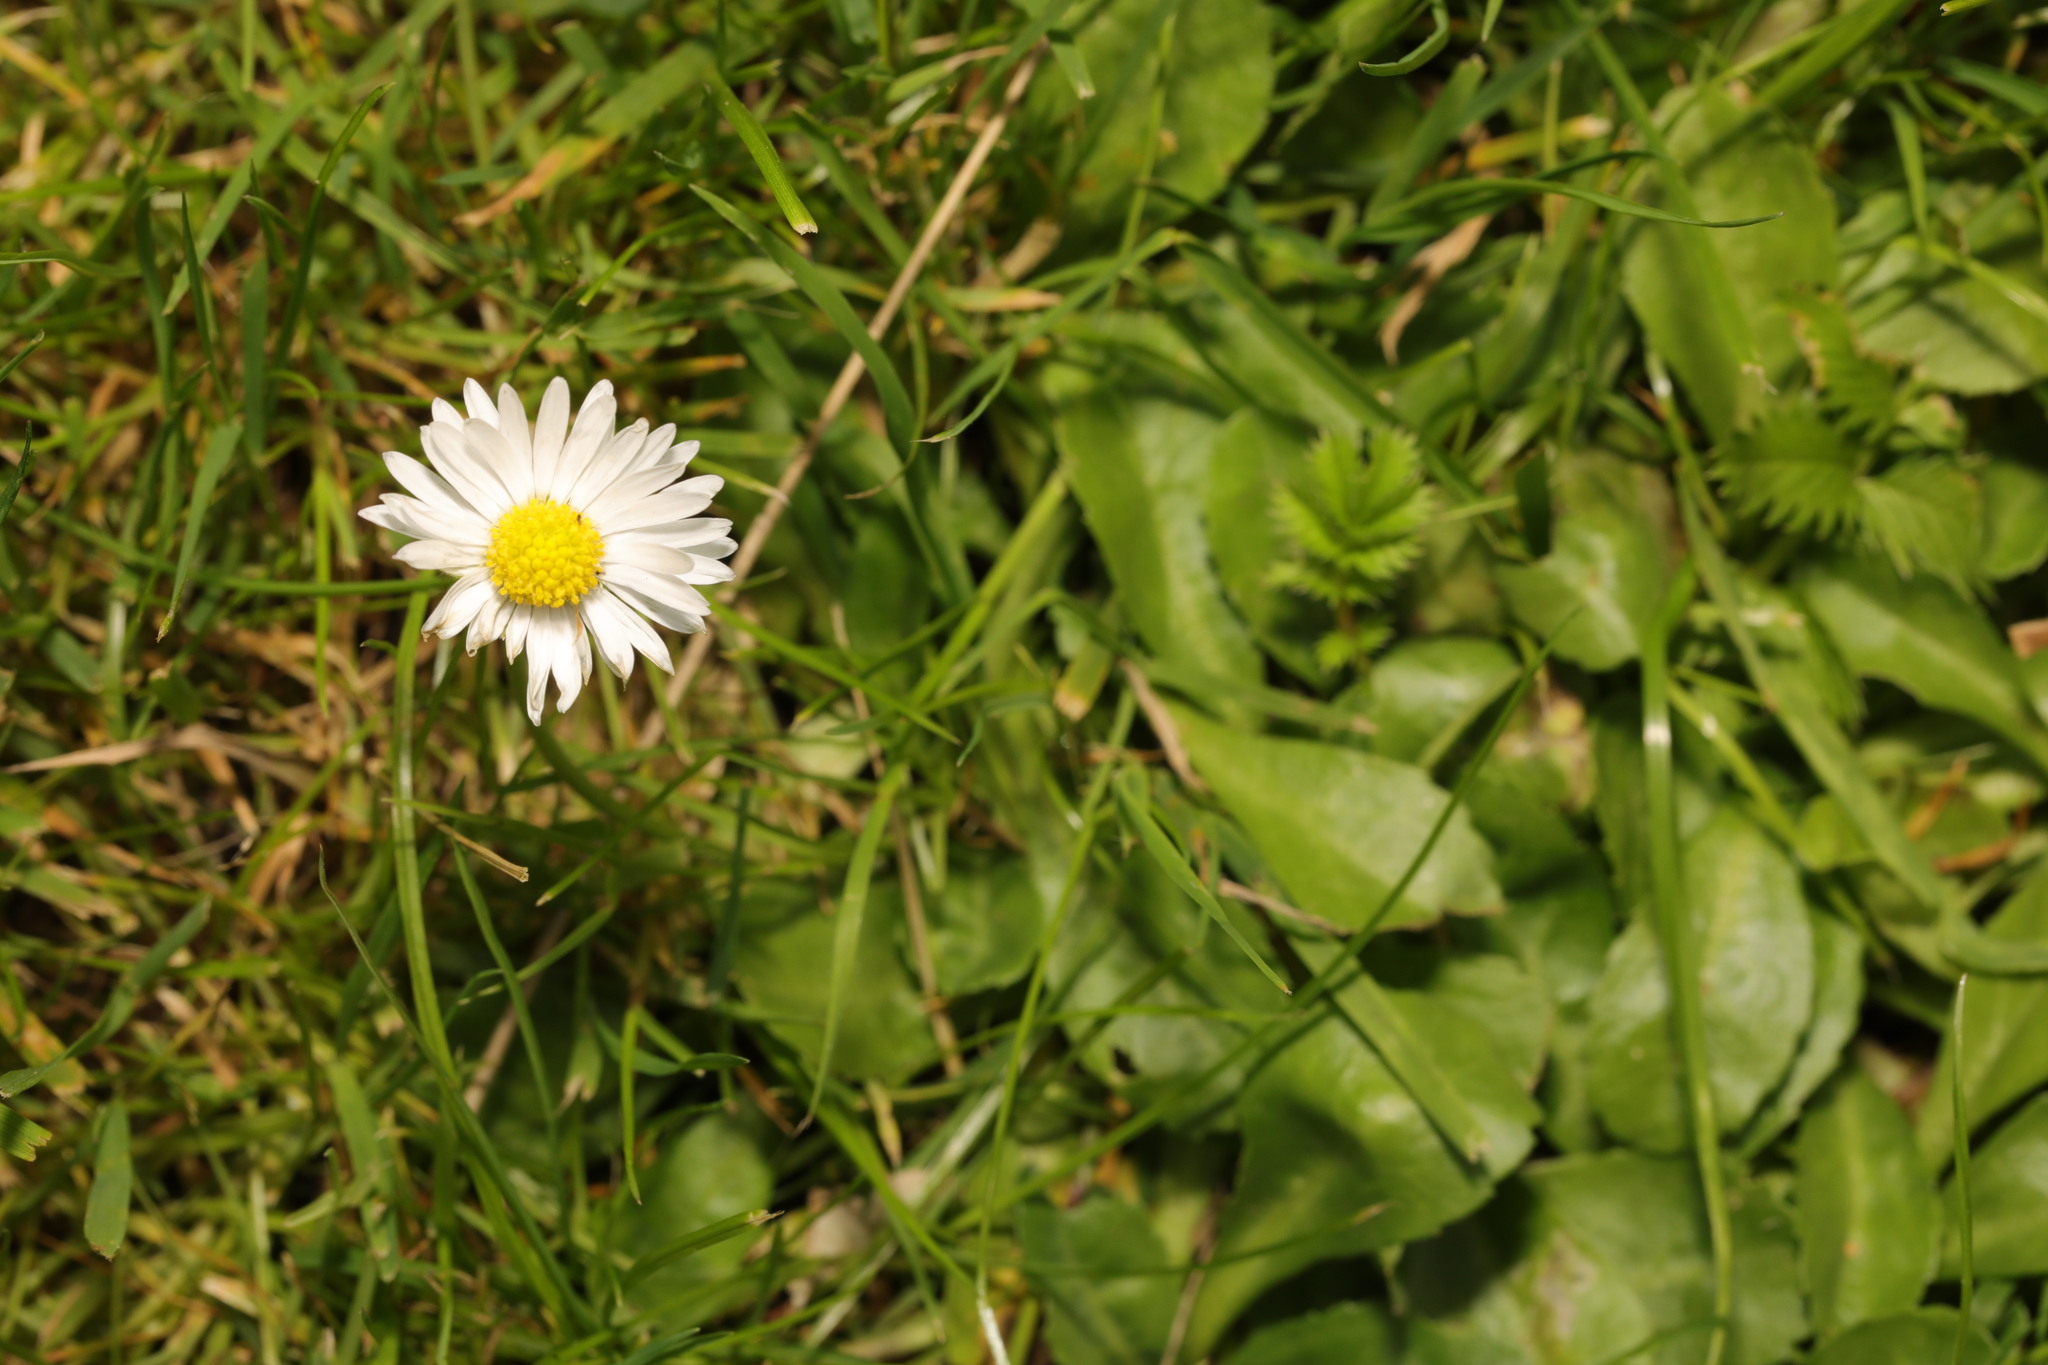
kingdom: Plantae
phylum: Tracheophyta
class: Magnoliopsida
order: Asterales
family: Asteraceae
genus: Bellis
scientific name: Bellis perennis
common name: Lawndaisy
